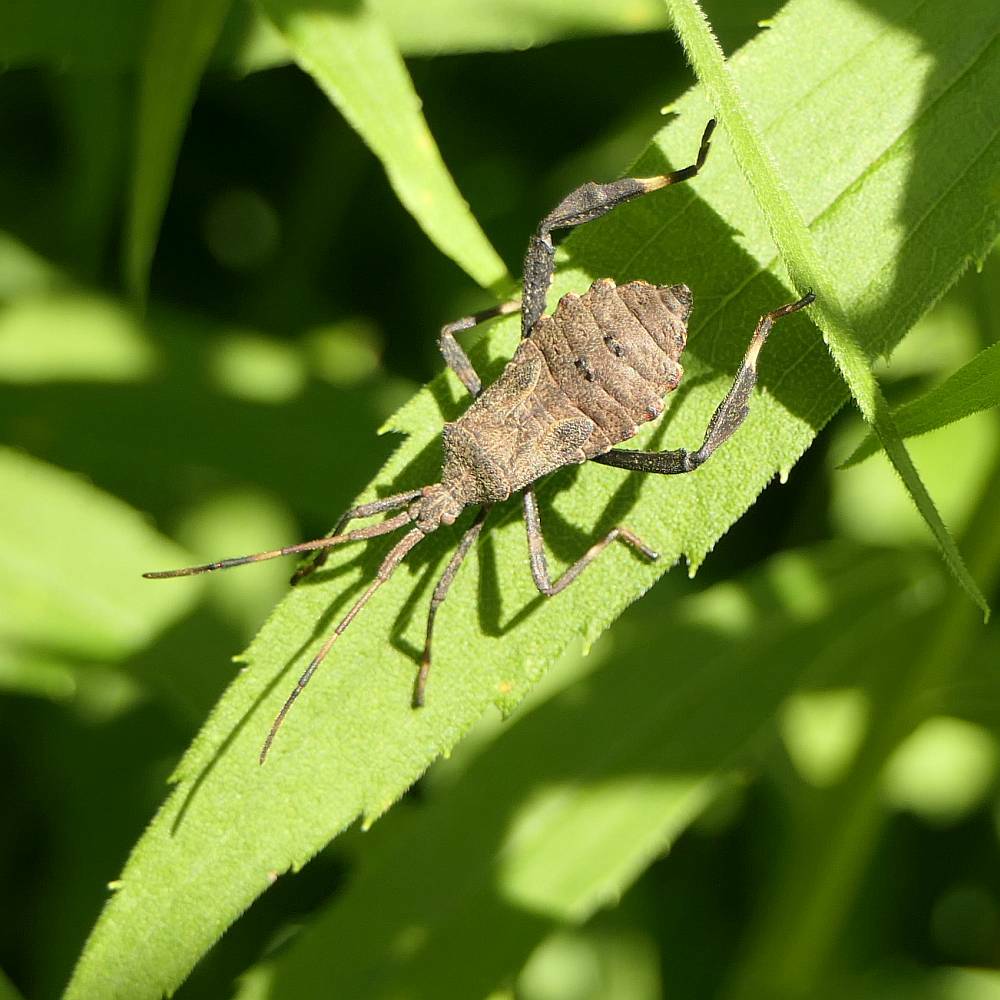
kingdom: Animalia
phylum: Arthropoda
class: Insecta
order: Hemiptera
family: Coreidae
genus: Acanthocephala
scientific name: Acanthocephala terminalis
